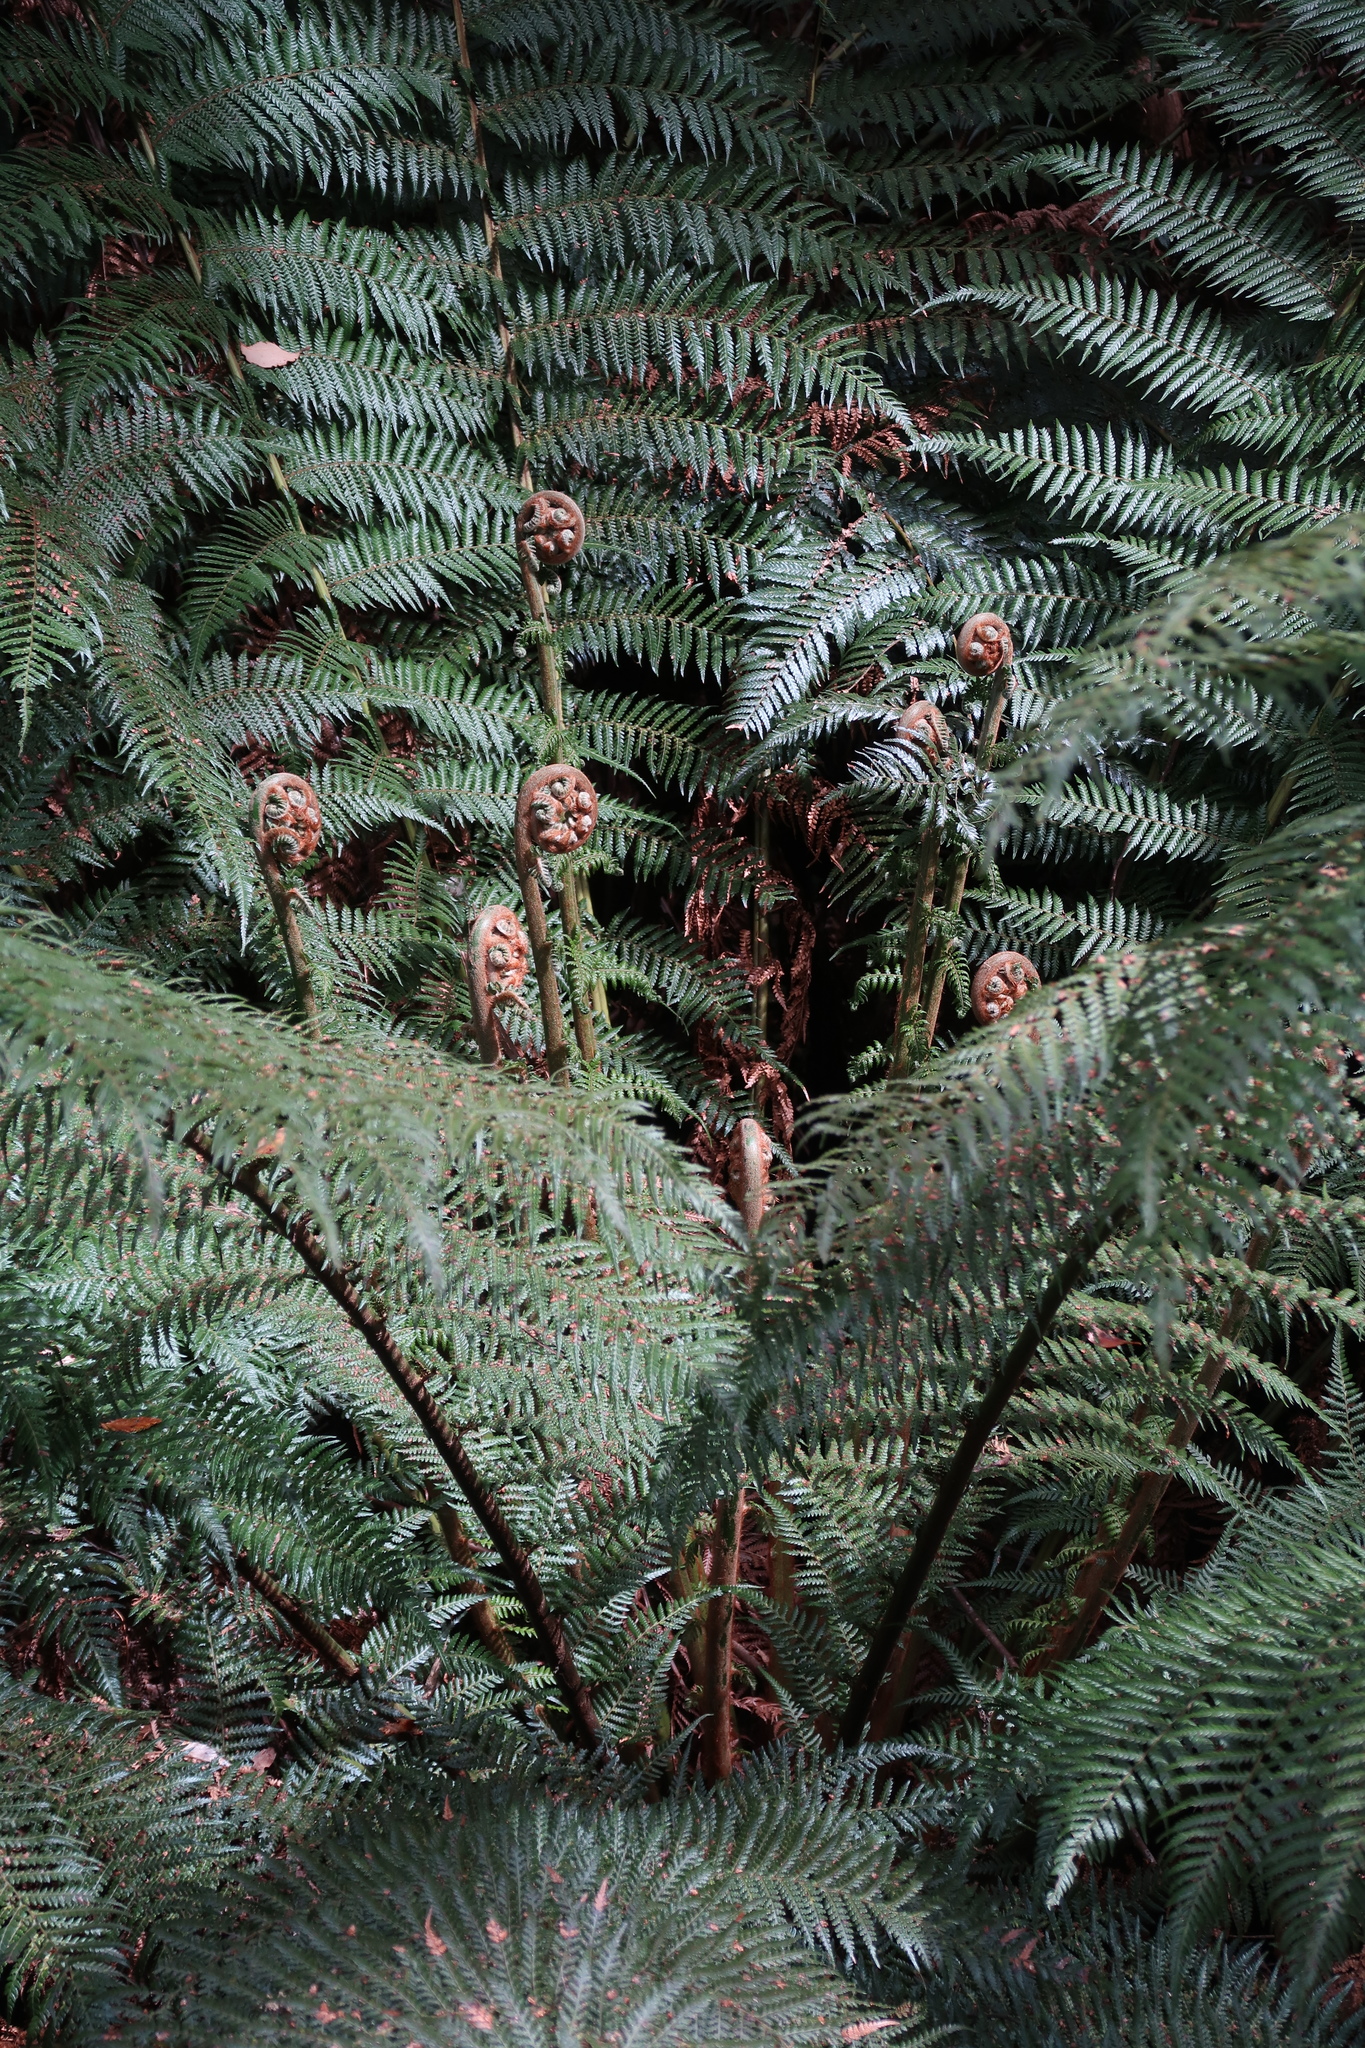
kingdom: Plantae
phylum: Tracheophyta
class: Polypodiopsida
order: Cyatheales
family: Dicksoniaceae
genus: Dicksonia
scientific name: Dicksonia antarctica
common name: Australian treefern
